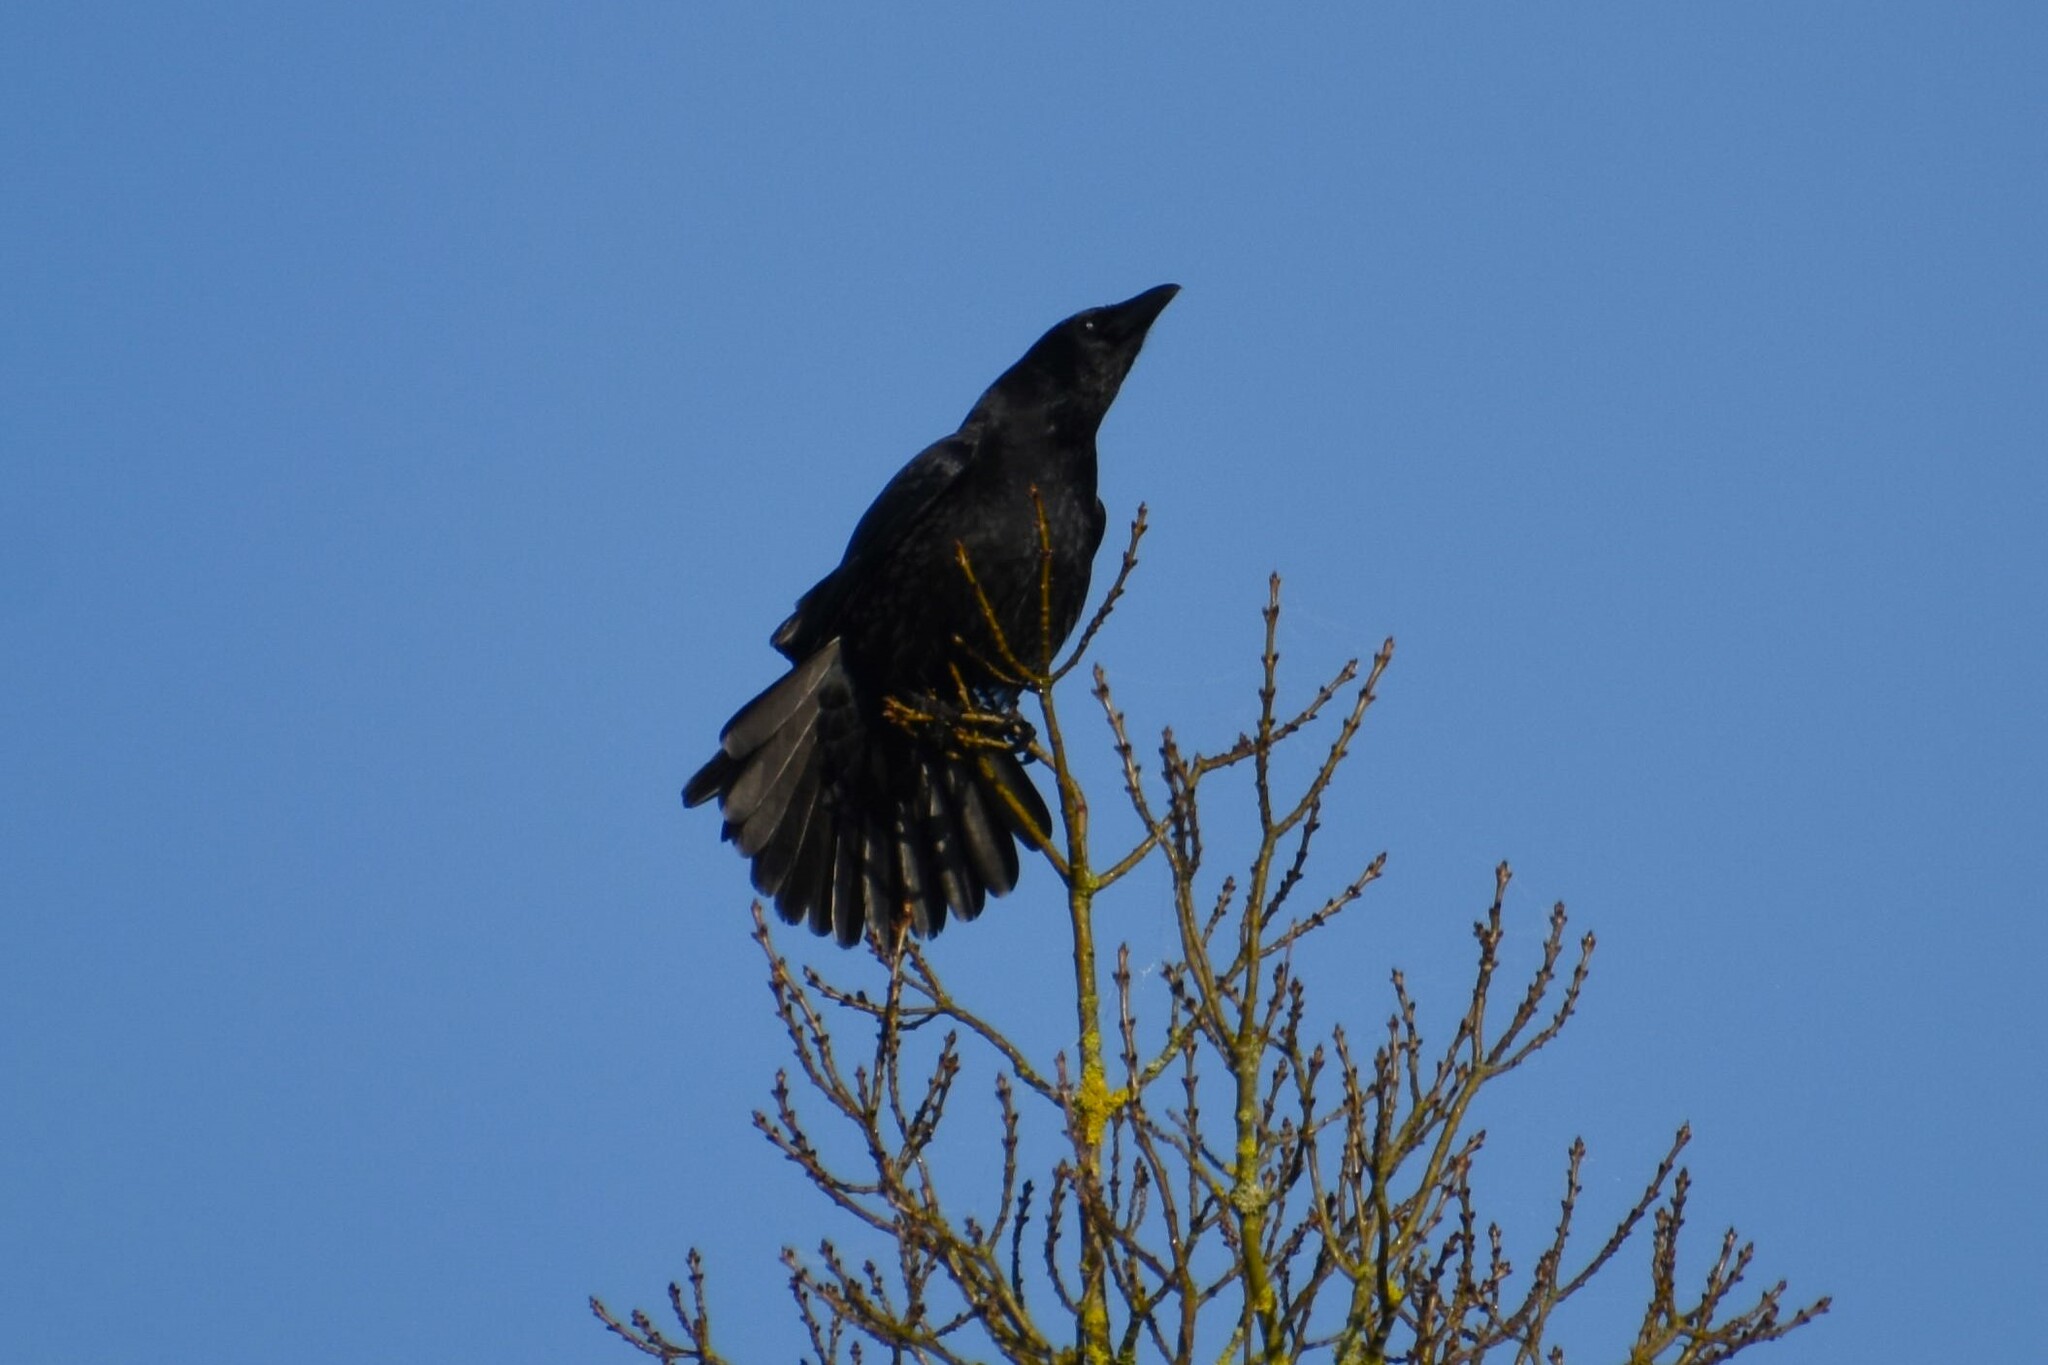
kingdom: Animalia
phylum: Chordata
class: Aves
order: Passeriformes
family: Corvidae
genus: Corvus
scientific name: Corvus corone
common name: Carrion crow
